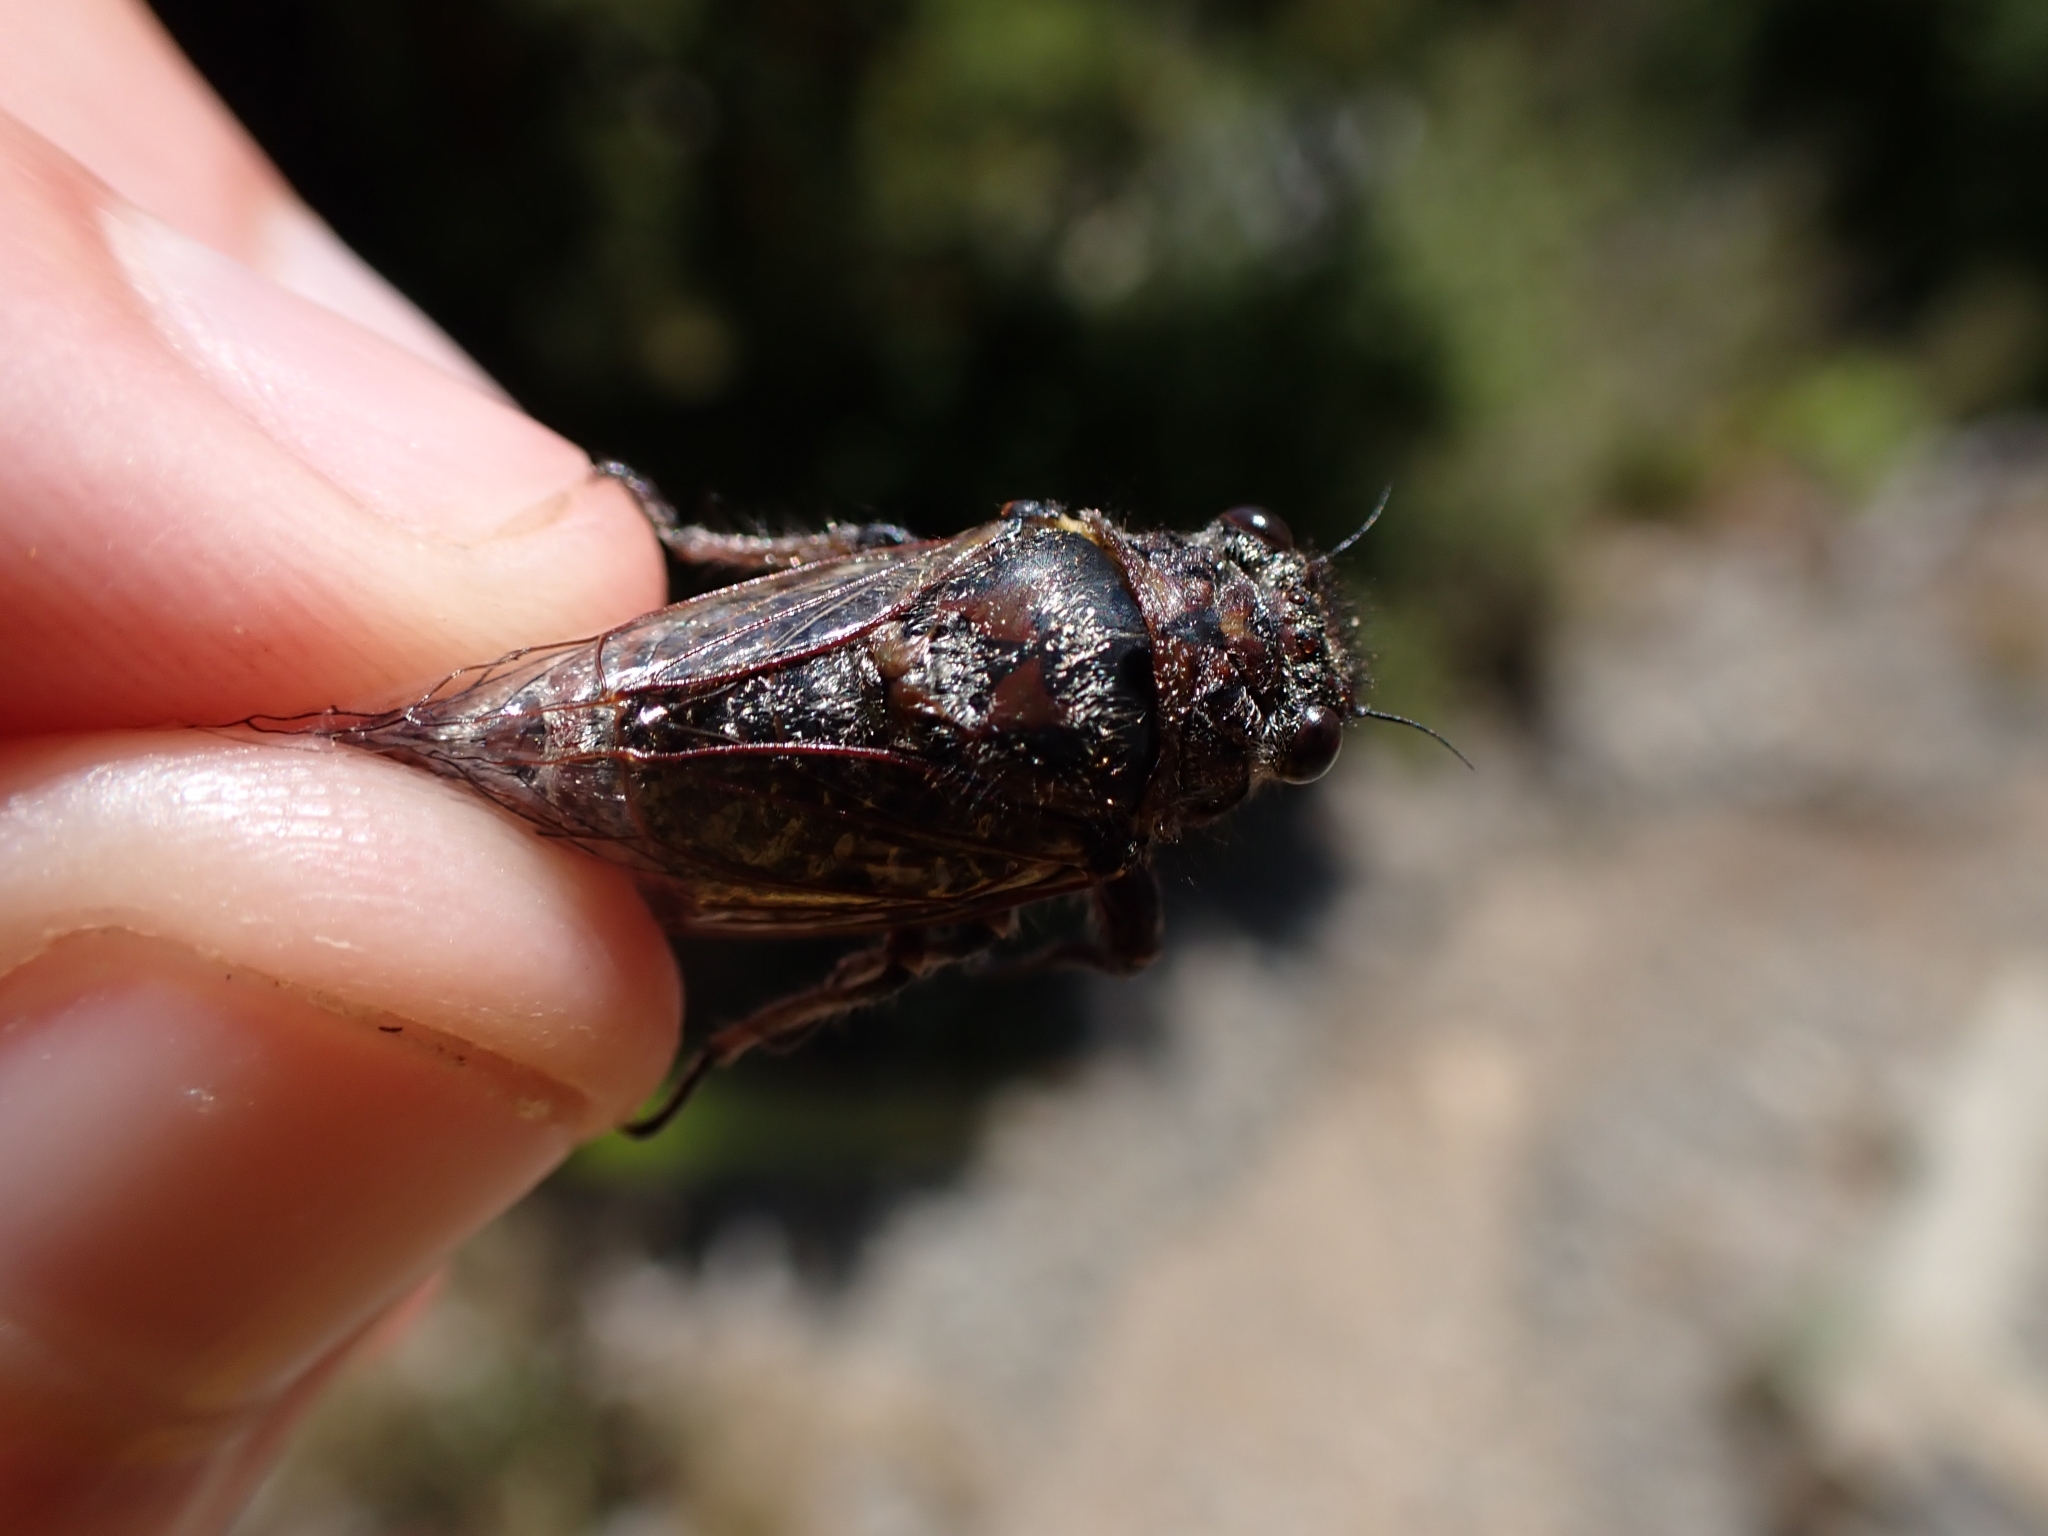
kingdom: Animalia
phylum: Arthropoda
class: Insecta
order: Hemiptera
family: Cicadidae
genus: Maoricicada
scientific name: Maoricicada cassiope
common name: Screaming cicada
